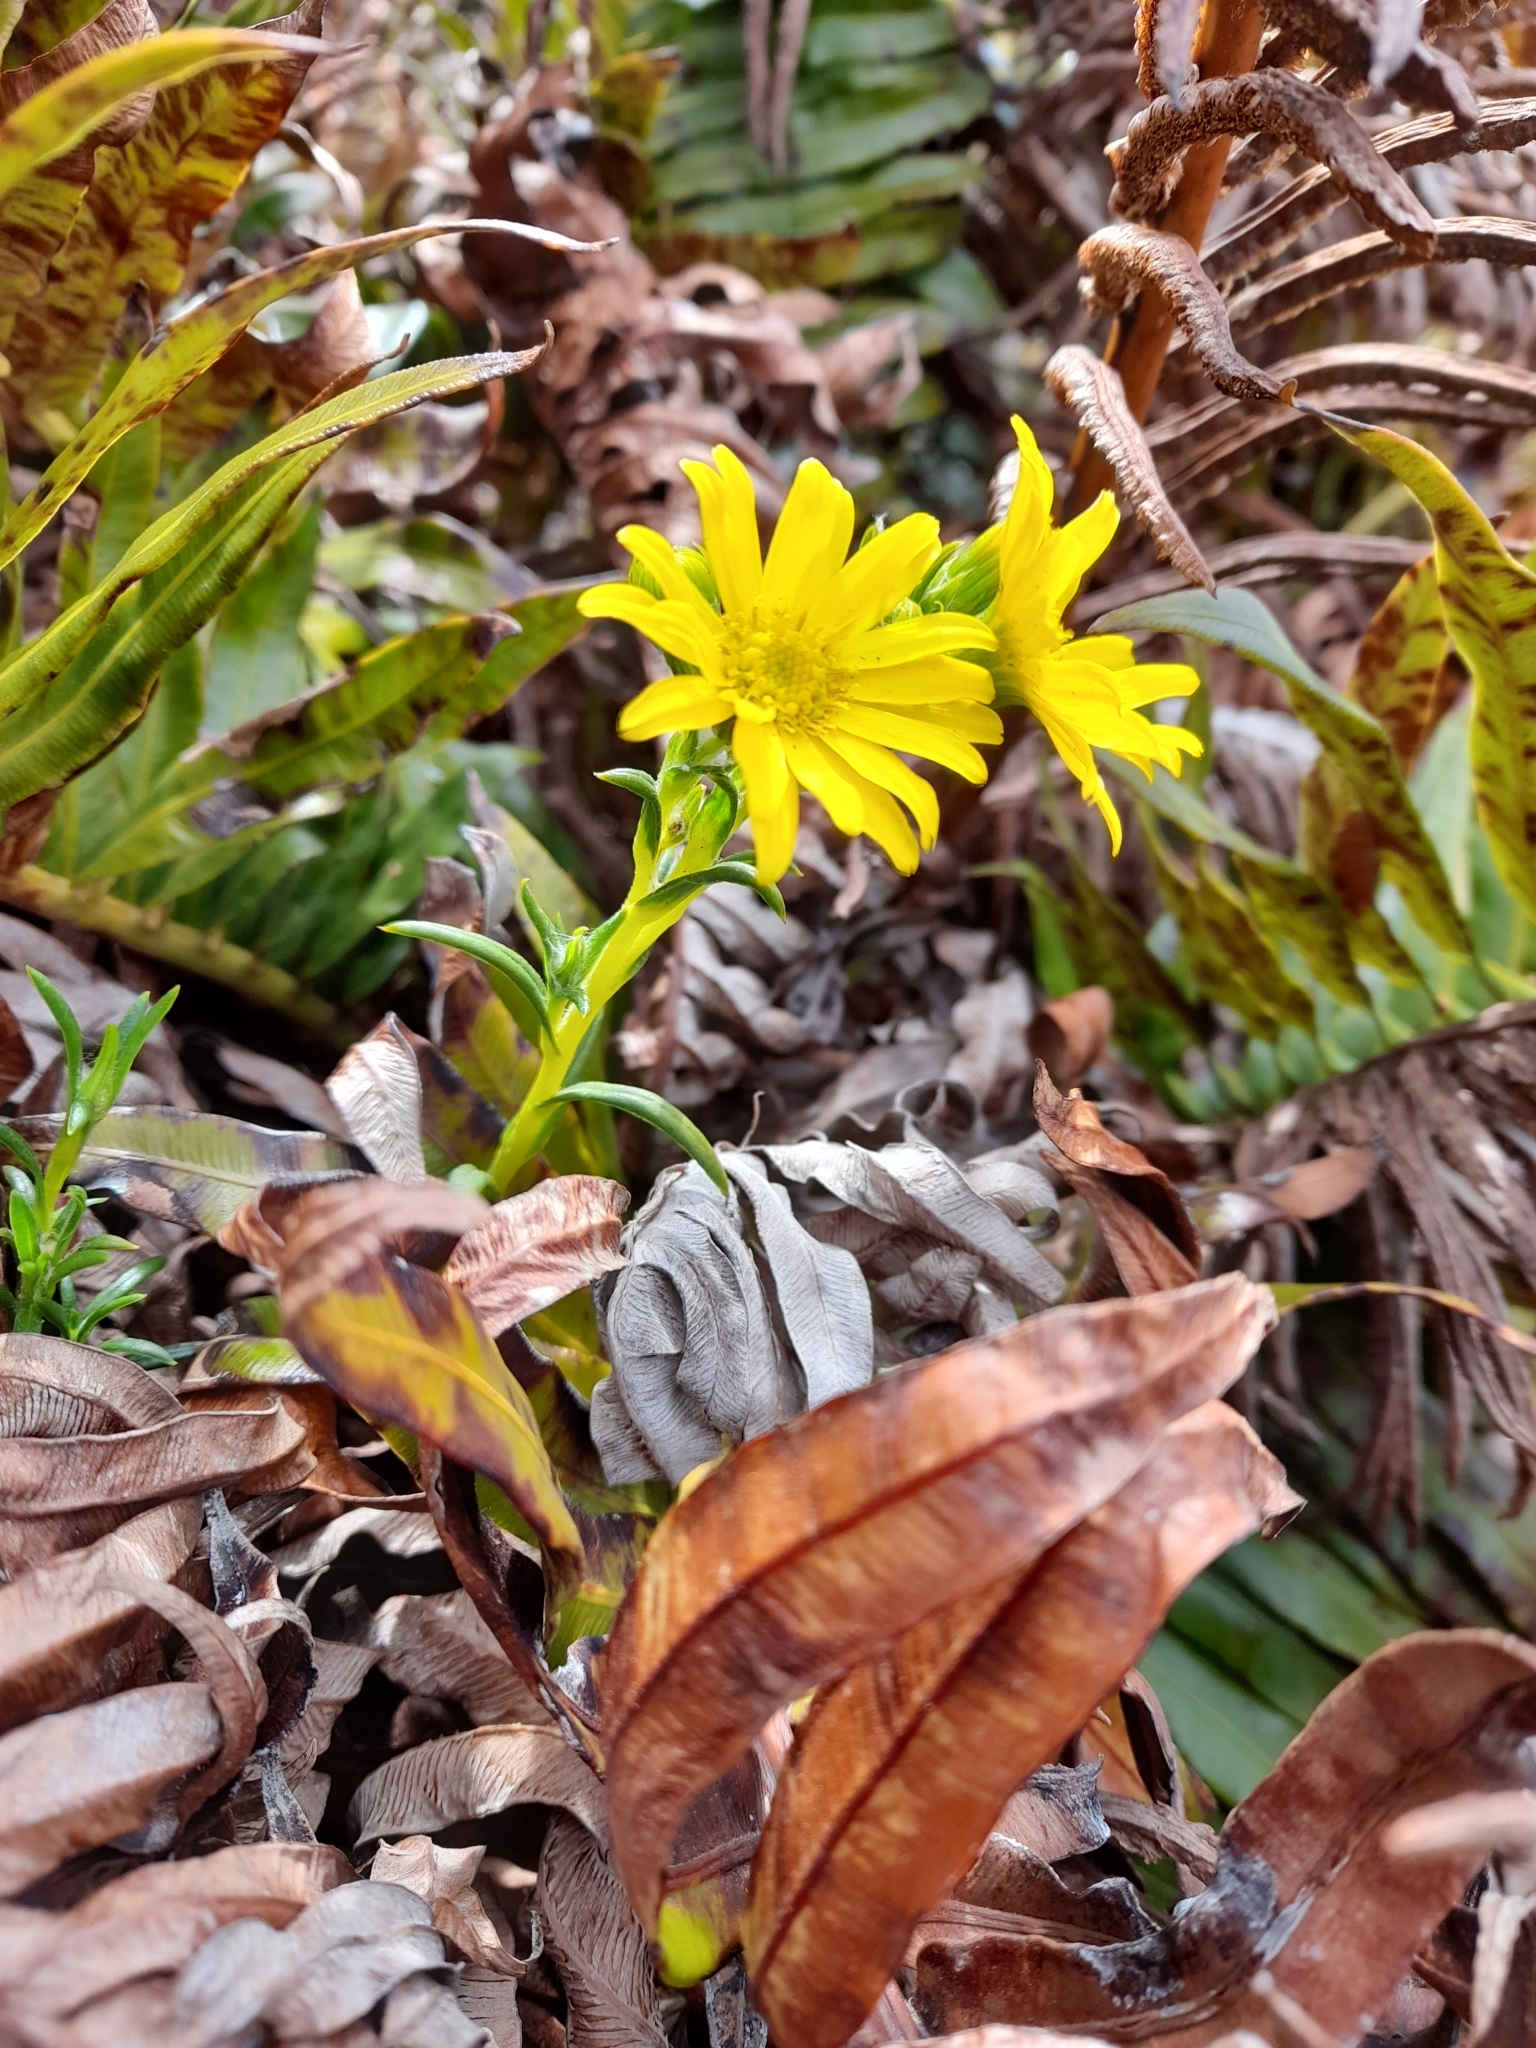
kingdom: Plantae
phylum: Tracheophyta
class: Magnoliopsida
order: Asterales
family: Asteraceae
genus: Senecio
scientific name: Senecio vaginatus
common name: Smooth falkland daisy
